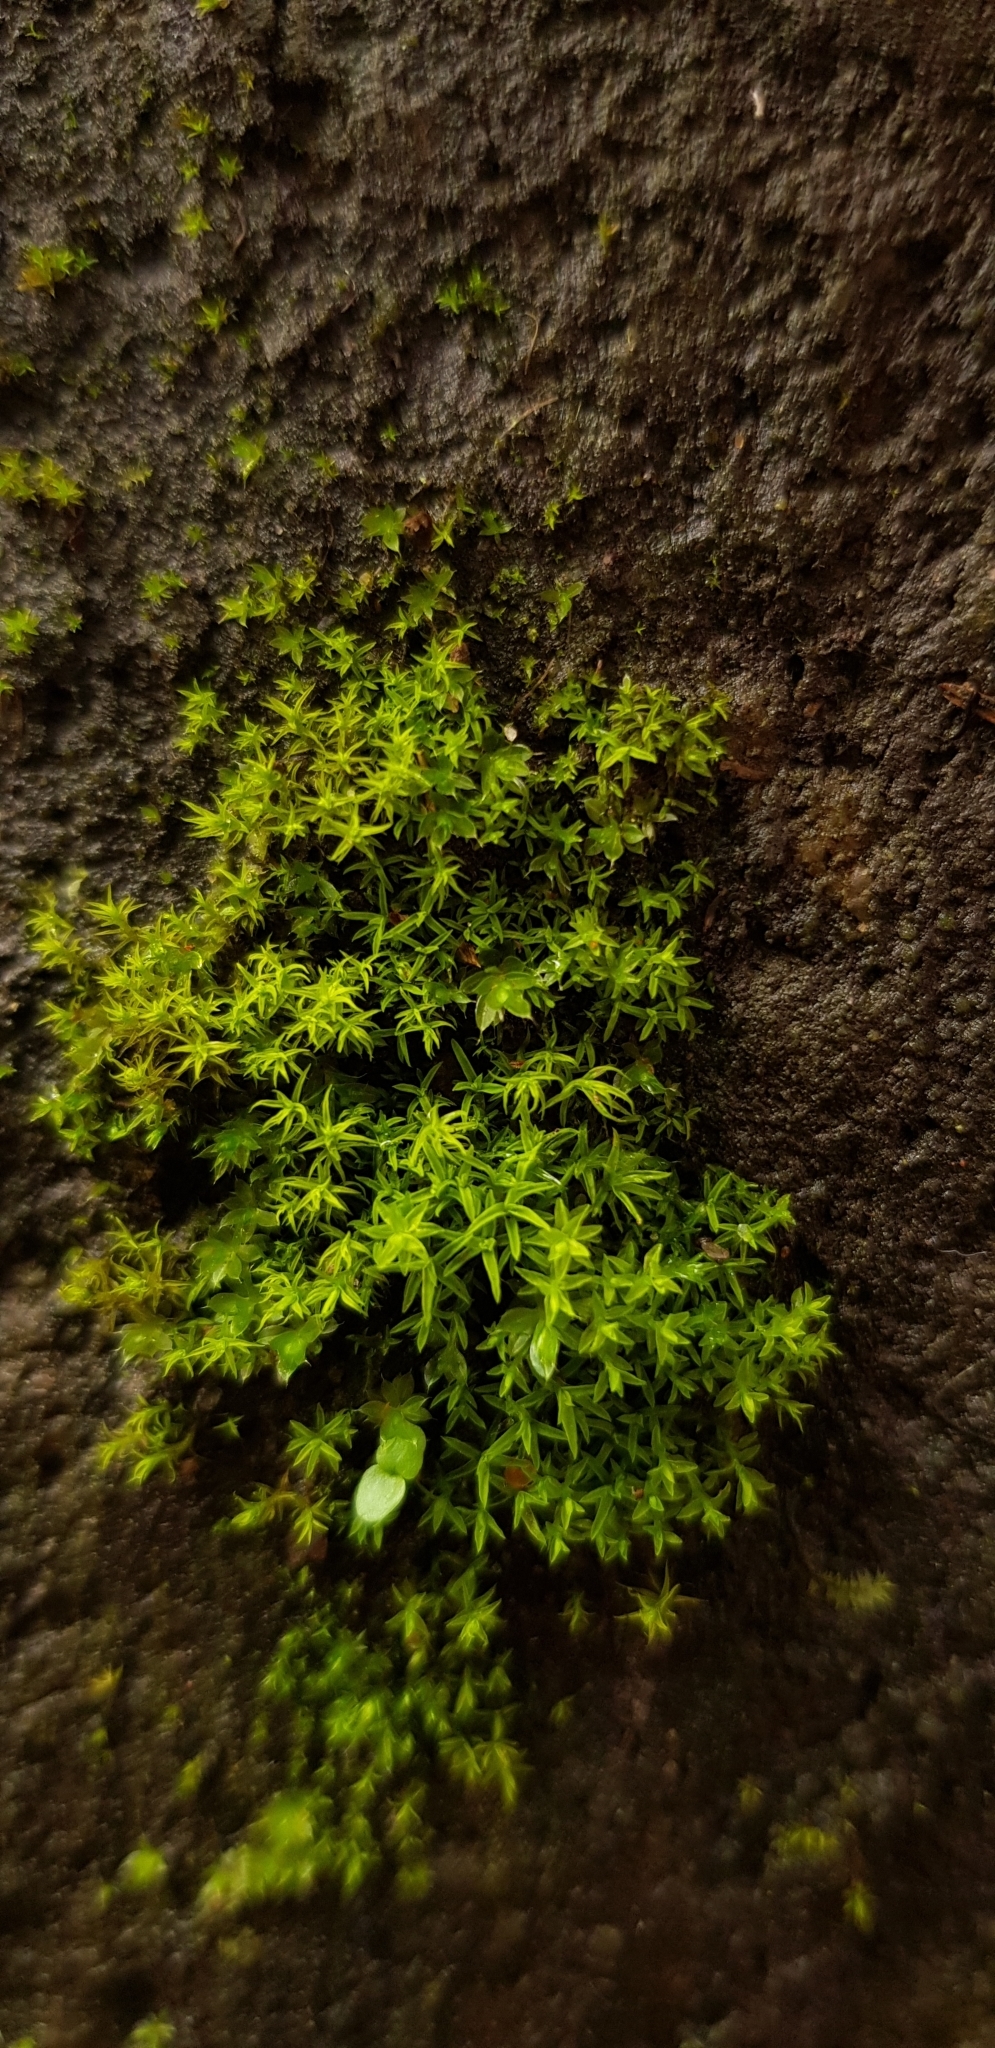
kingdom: Plantae
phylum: Bryophyta
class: Bryopsida
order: Pottiales
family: Pottiaceae
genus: Bryoerythrophyllum
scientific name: Bryoerythrophyllum recurvirostrum
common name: Red beard moss
